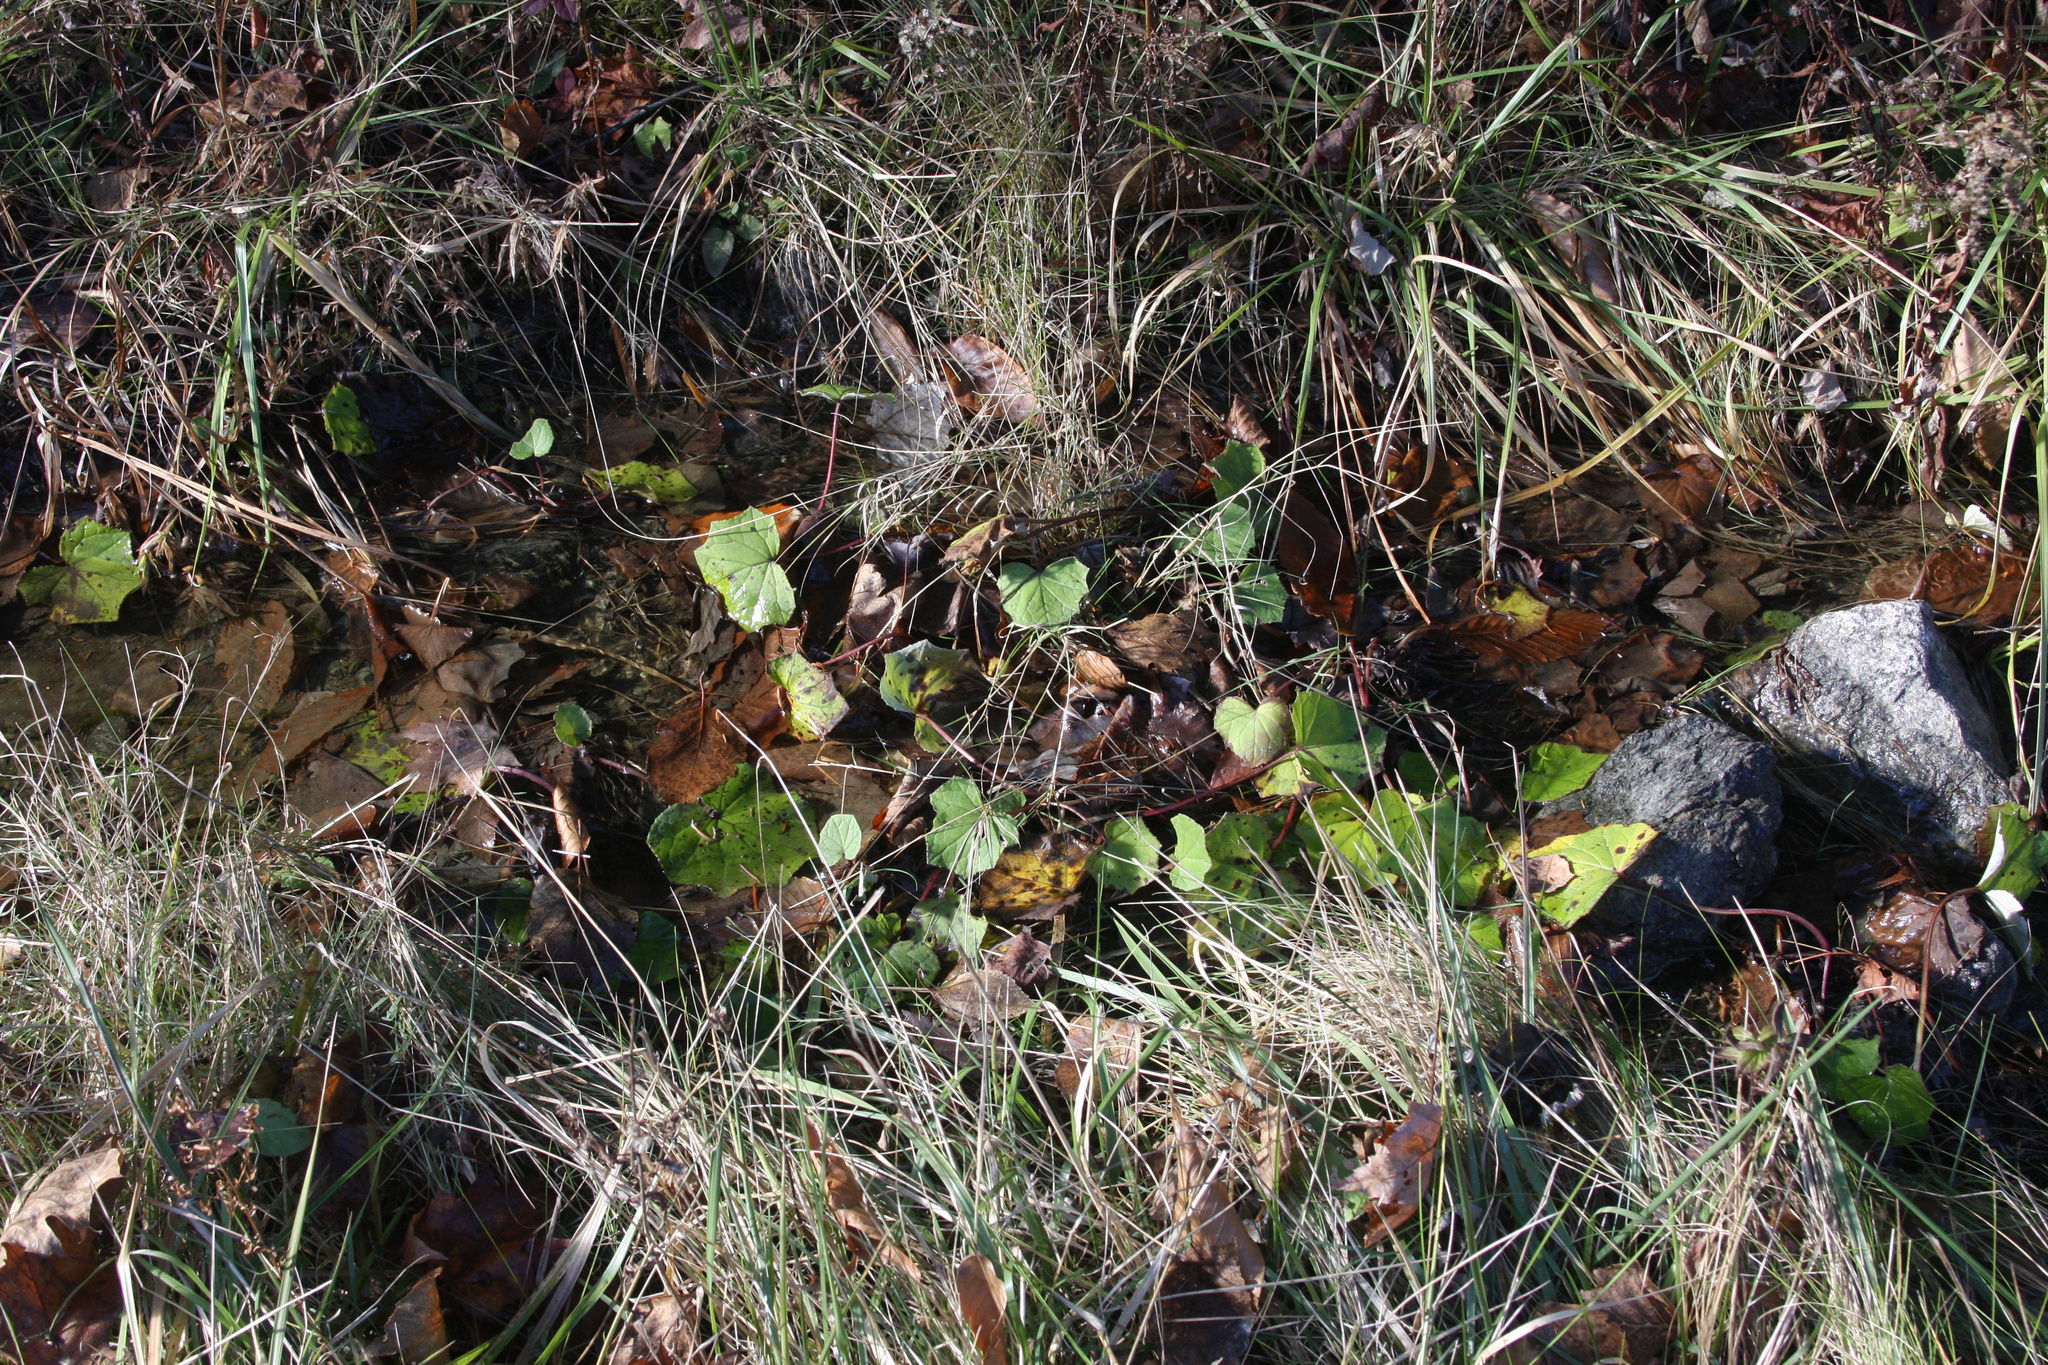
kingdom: Plantae
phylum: Tracheophyta
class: Magnoliopsida
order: Asterales
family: Asteraceae
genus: Tussilago
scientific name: Tussilago farfara
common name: Coltsfoot
